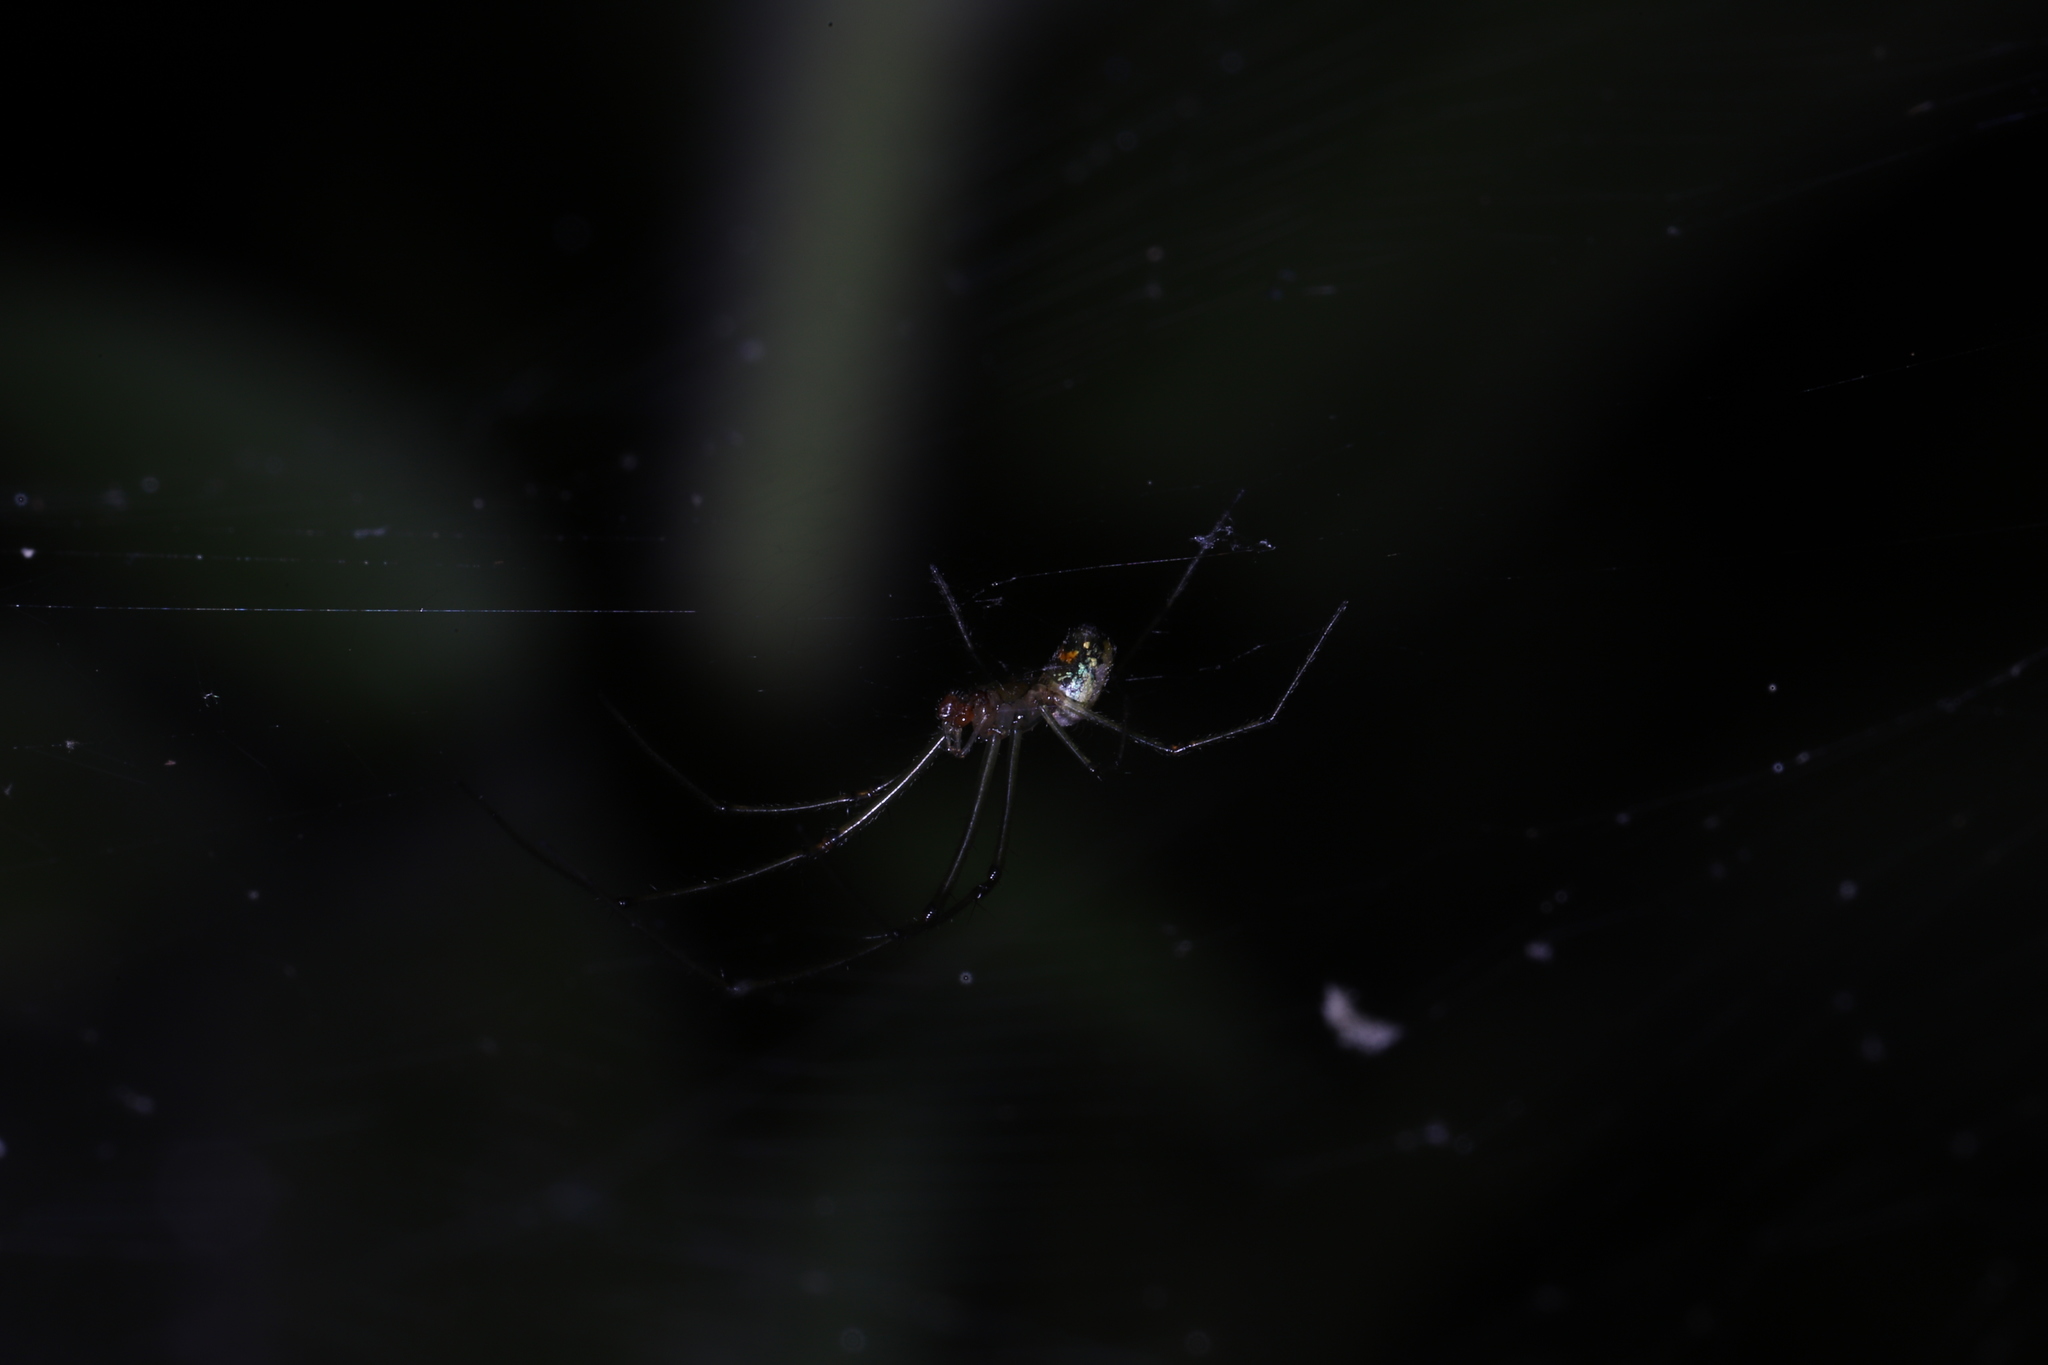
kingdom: Animalia
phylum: Arthropoda
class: Arachnida
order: Araneae
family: Tetragnathidae
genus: Leucauge
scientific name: Leucauge venusta
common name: Longjawed orb weavers
